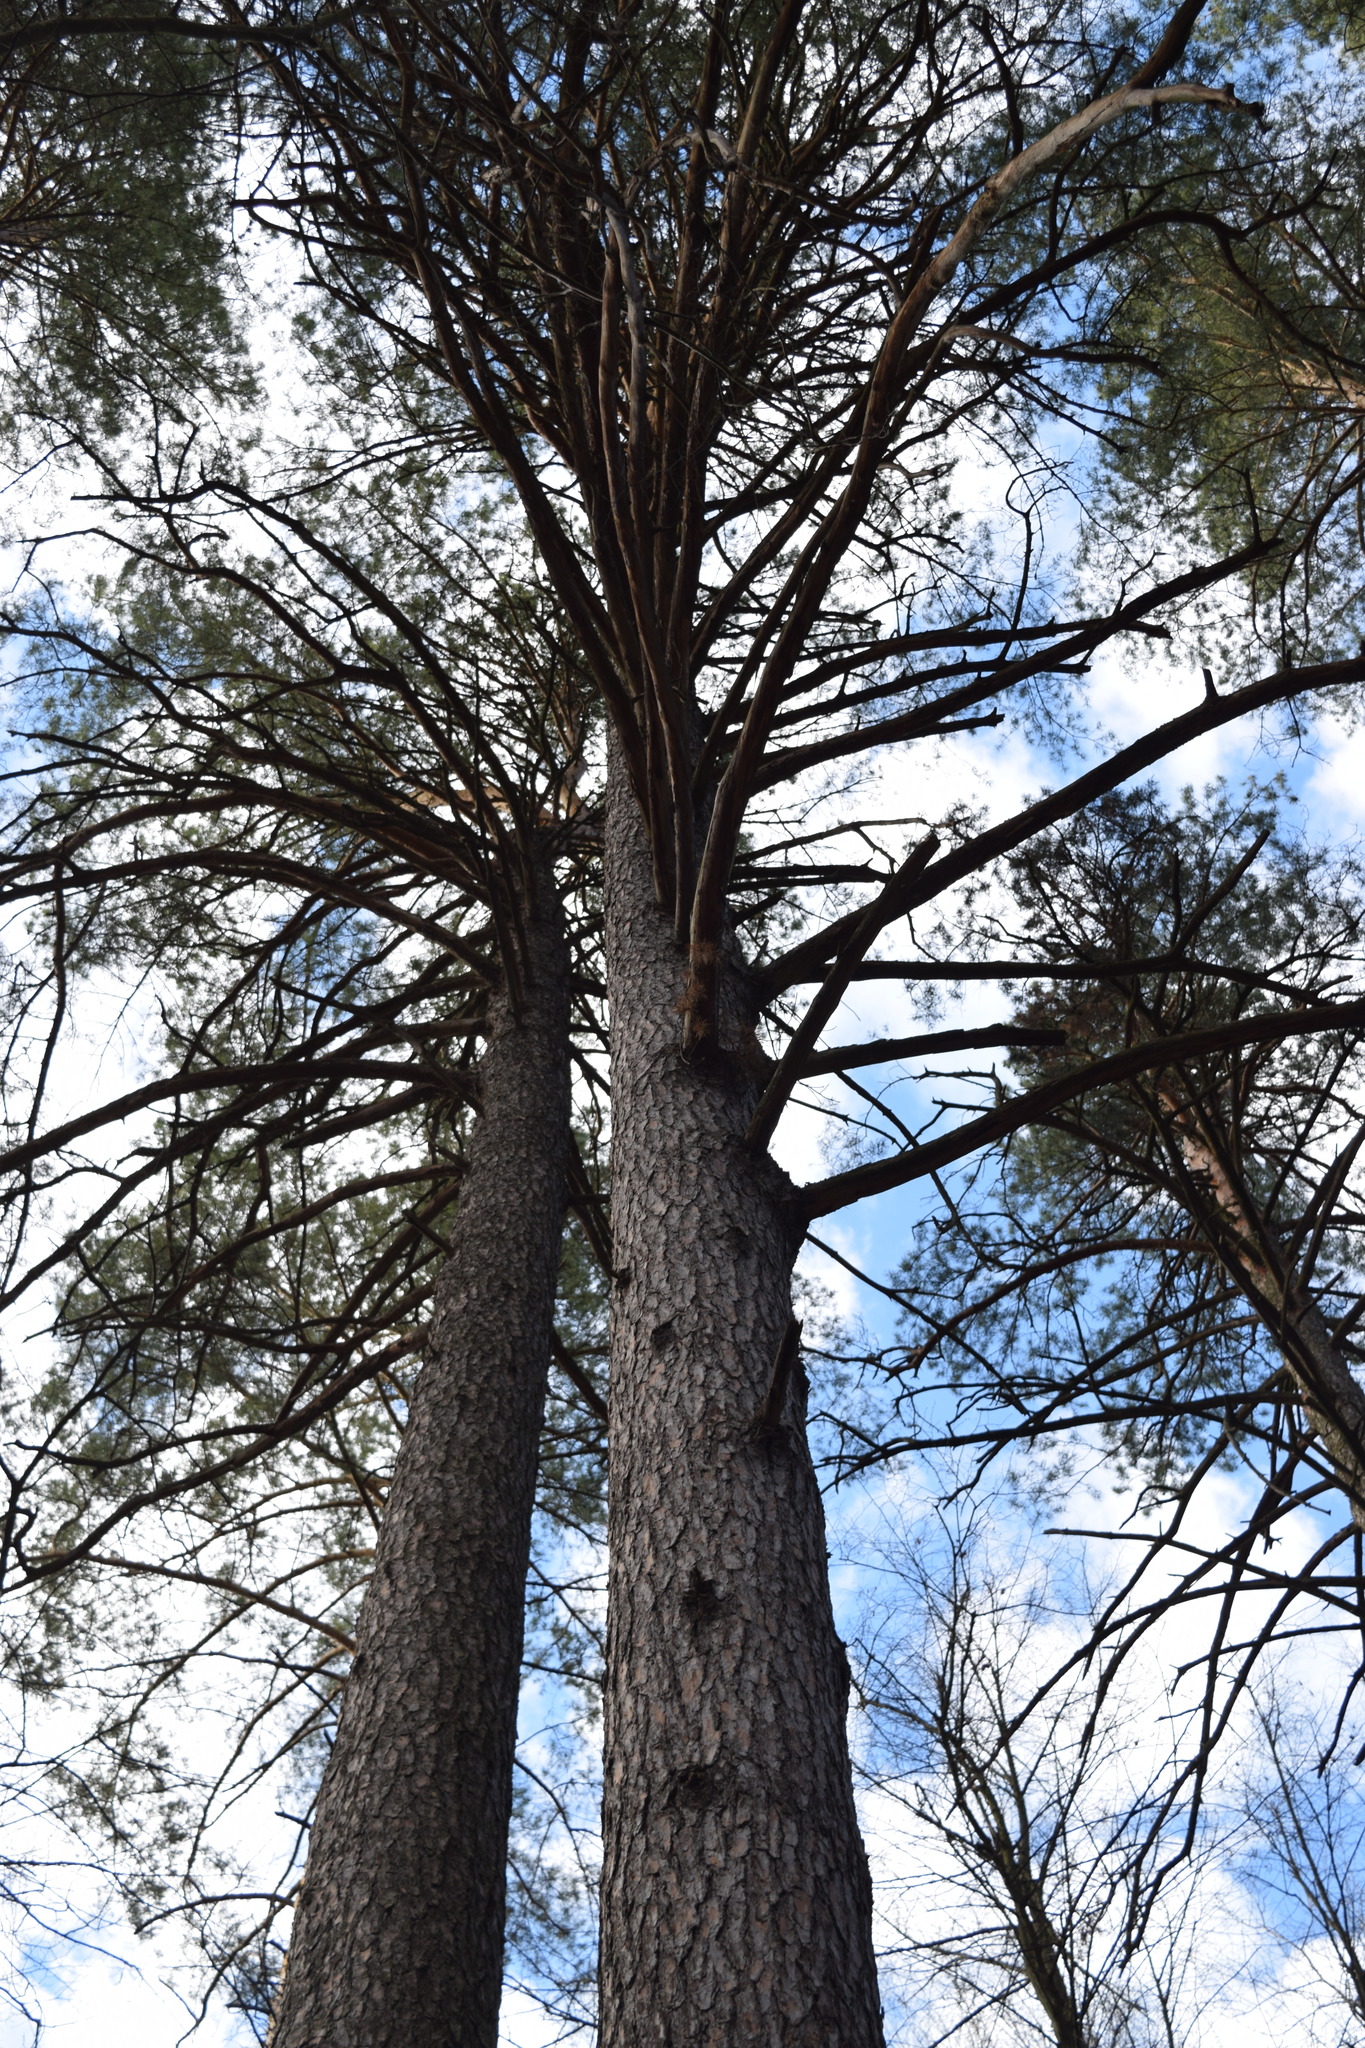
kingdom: Plantae
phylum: Tracheophyta
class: Pinopsida
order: Pinales
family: Pinaceae
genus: Pinus
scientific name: Pinus sylvestris
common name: Scots pine
